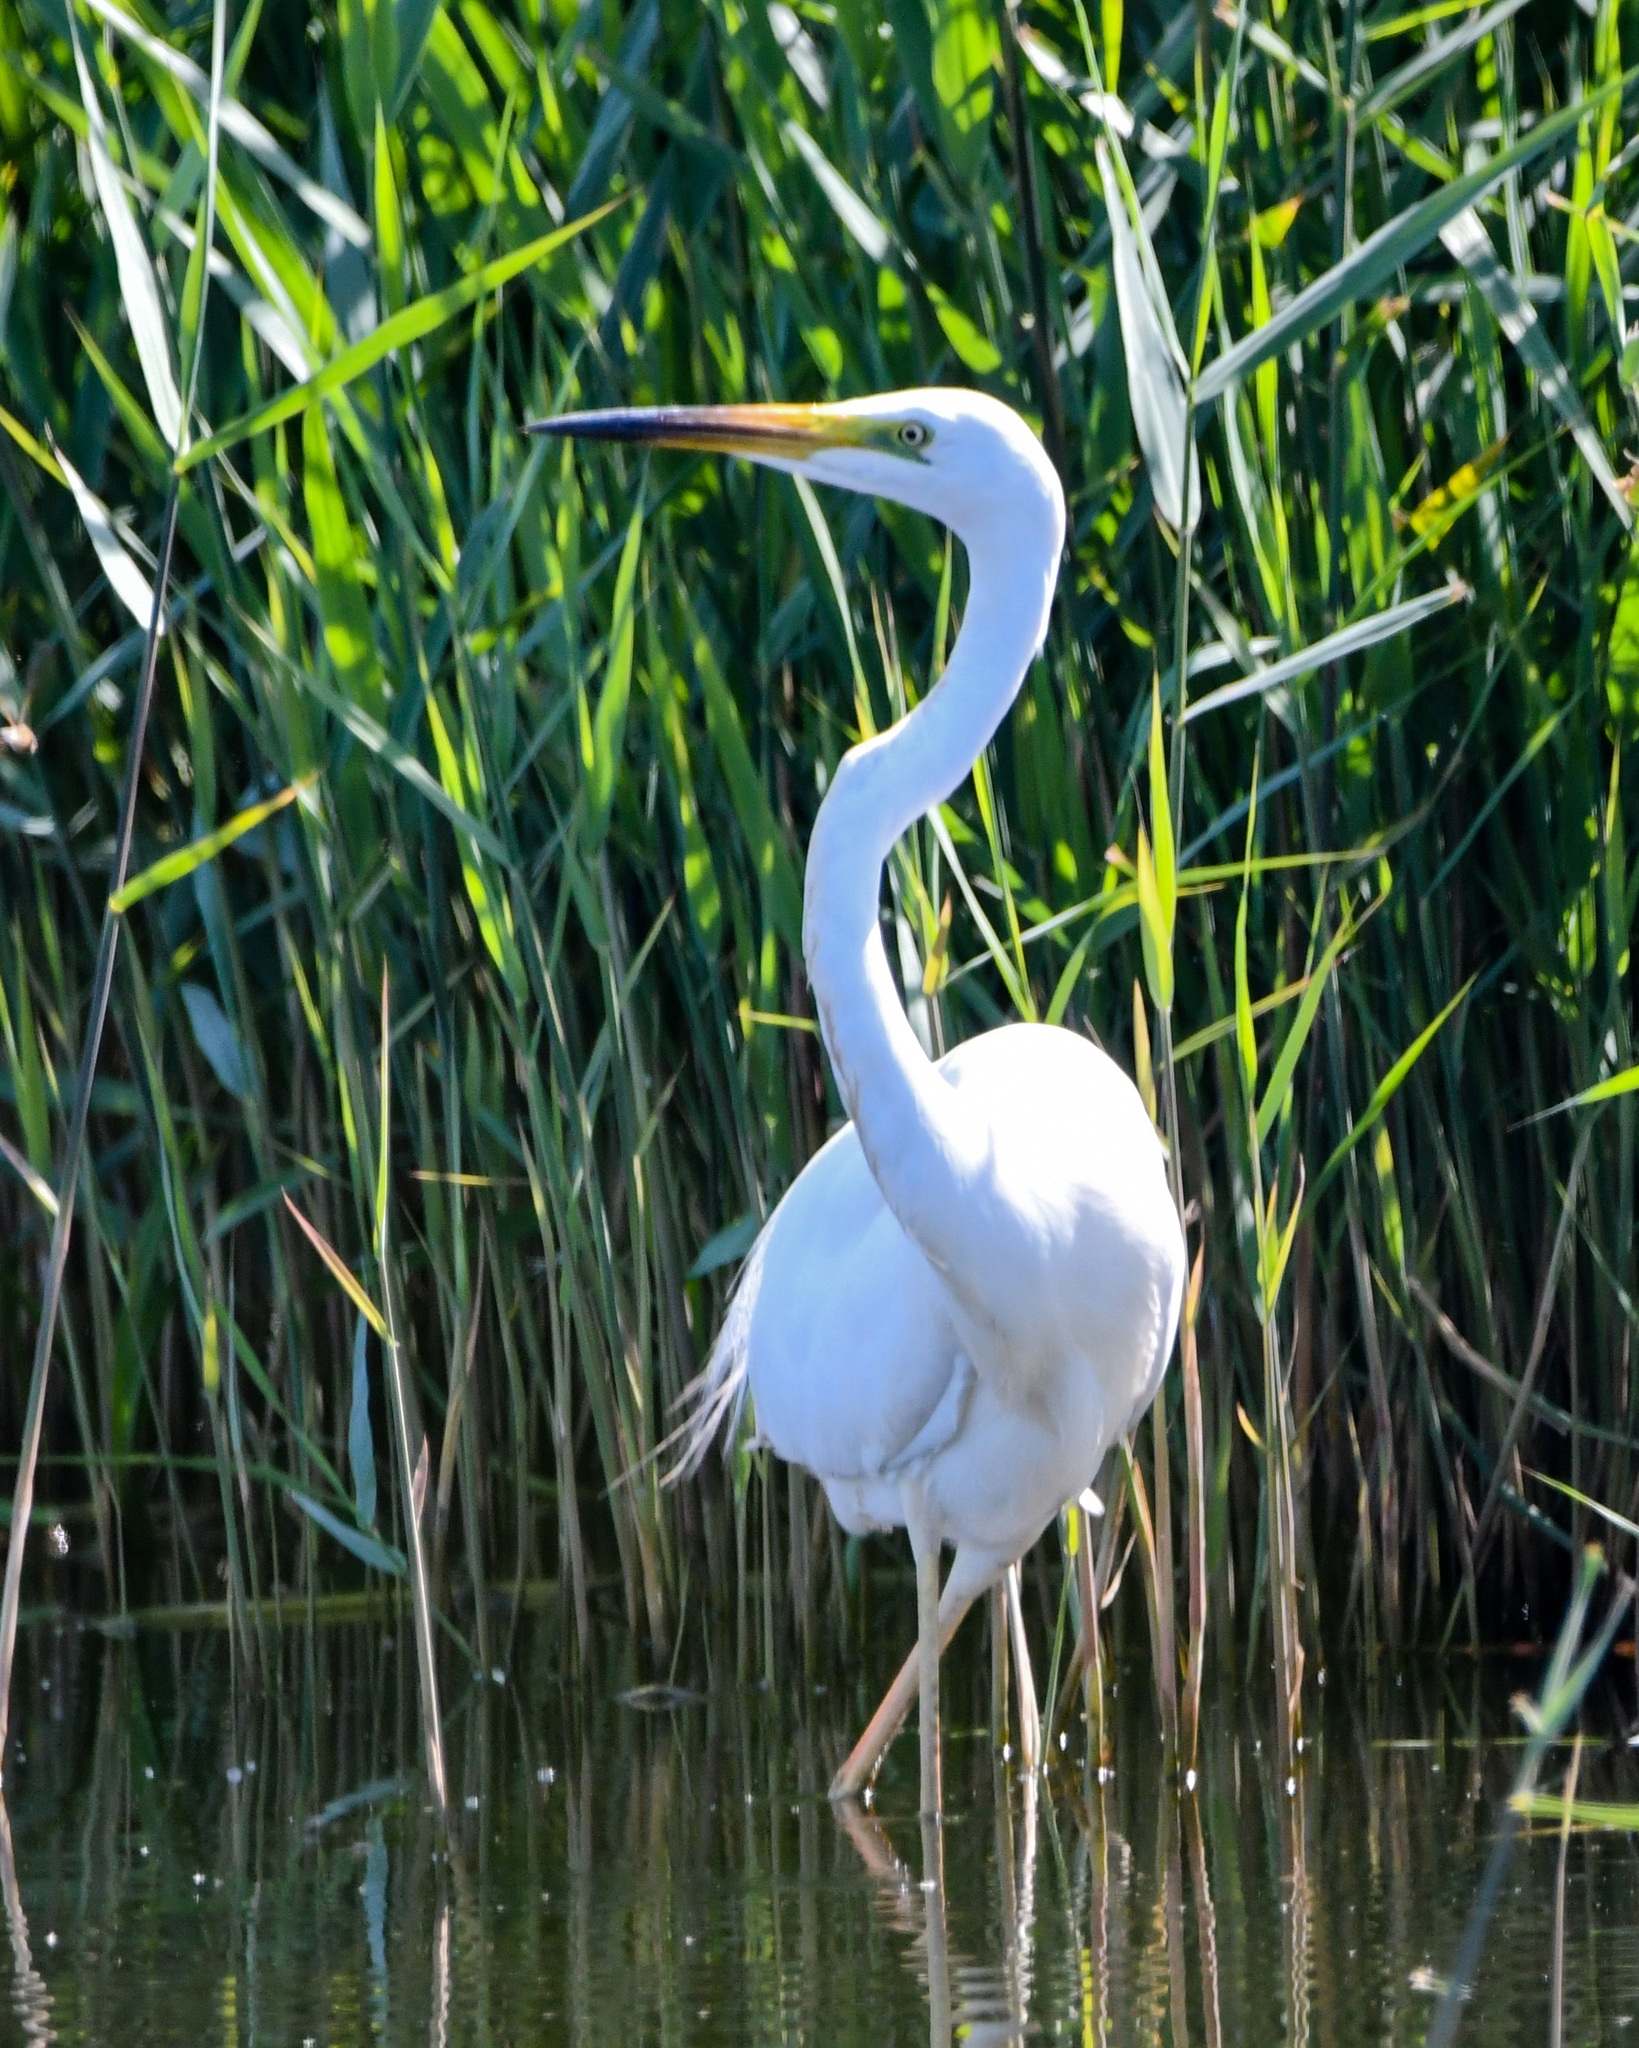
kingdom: Animalia
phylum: Chordata
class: Aves
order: Pelecaniformes
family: Ardeidae
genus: Ardea
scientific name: Ardea alba
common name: Great egret
